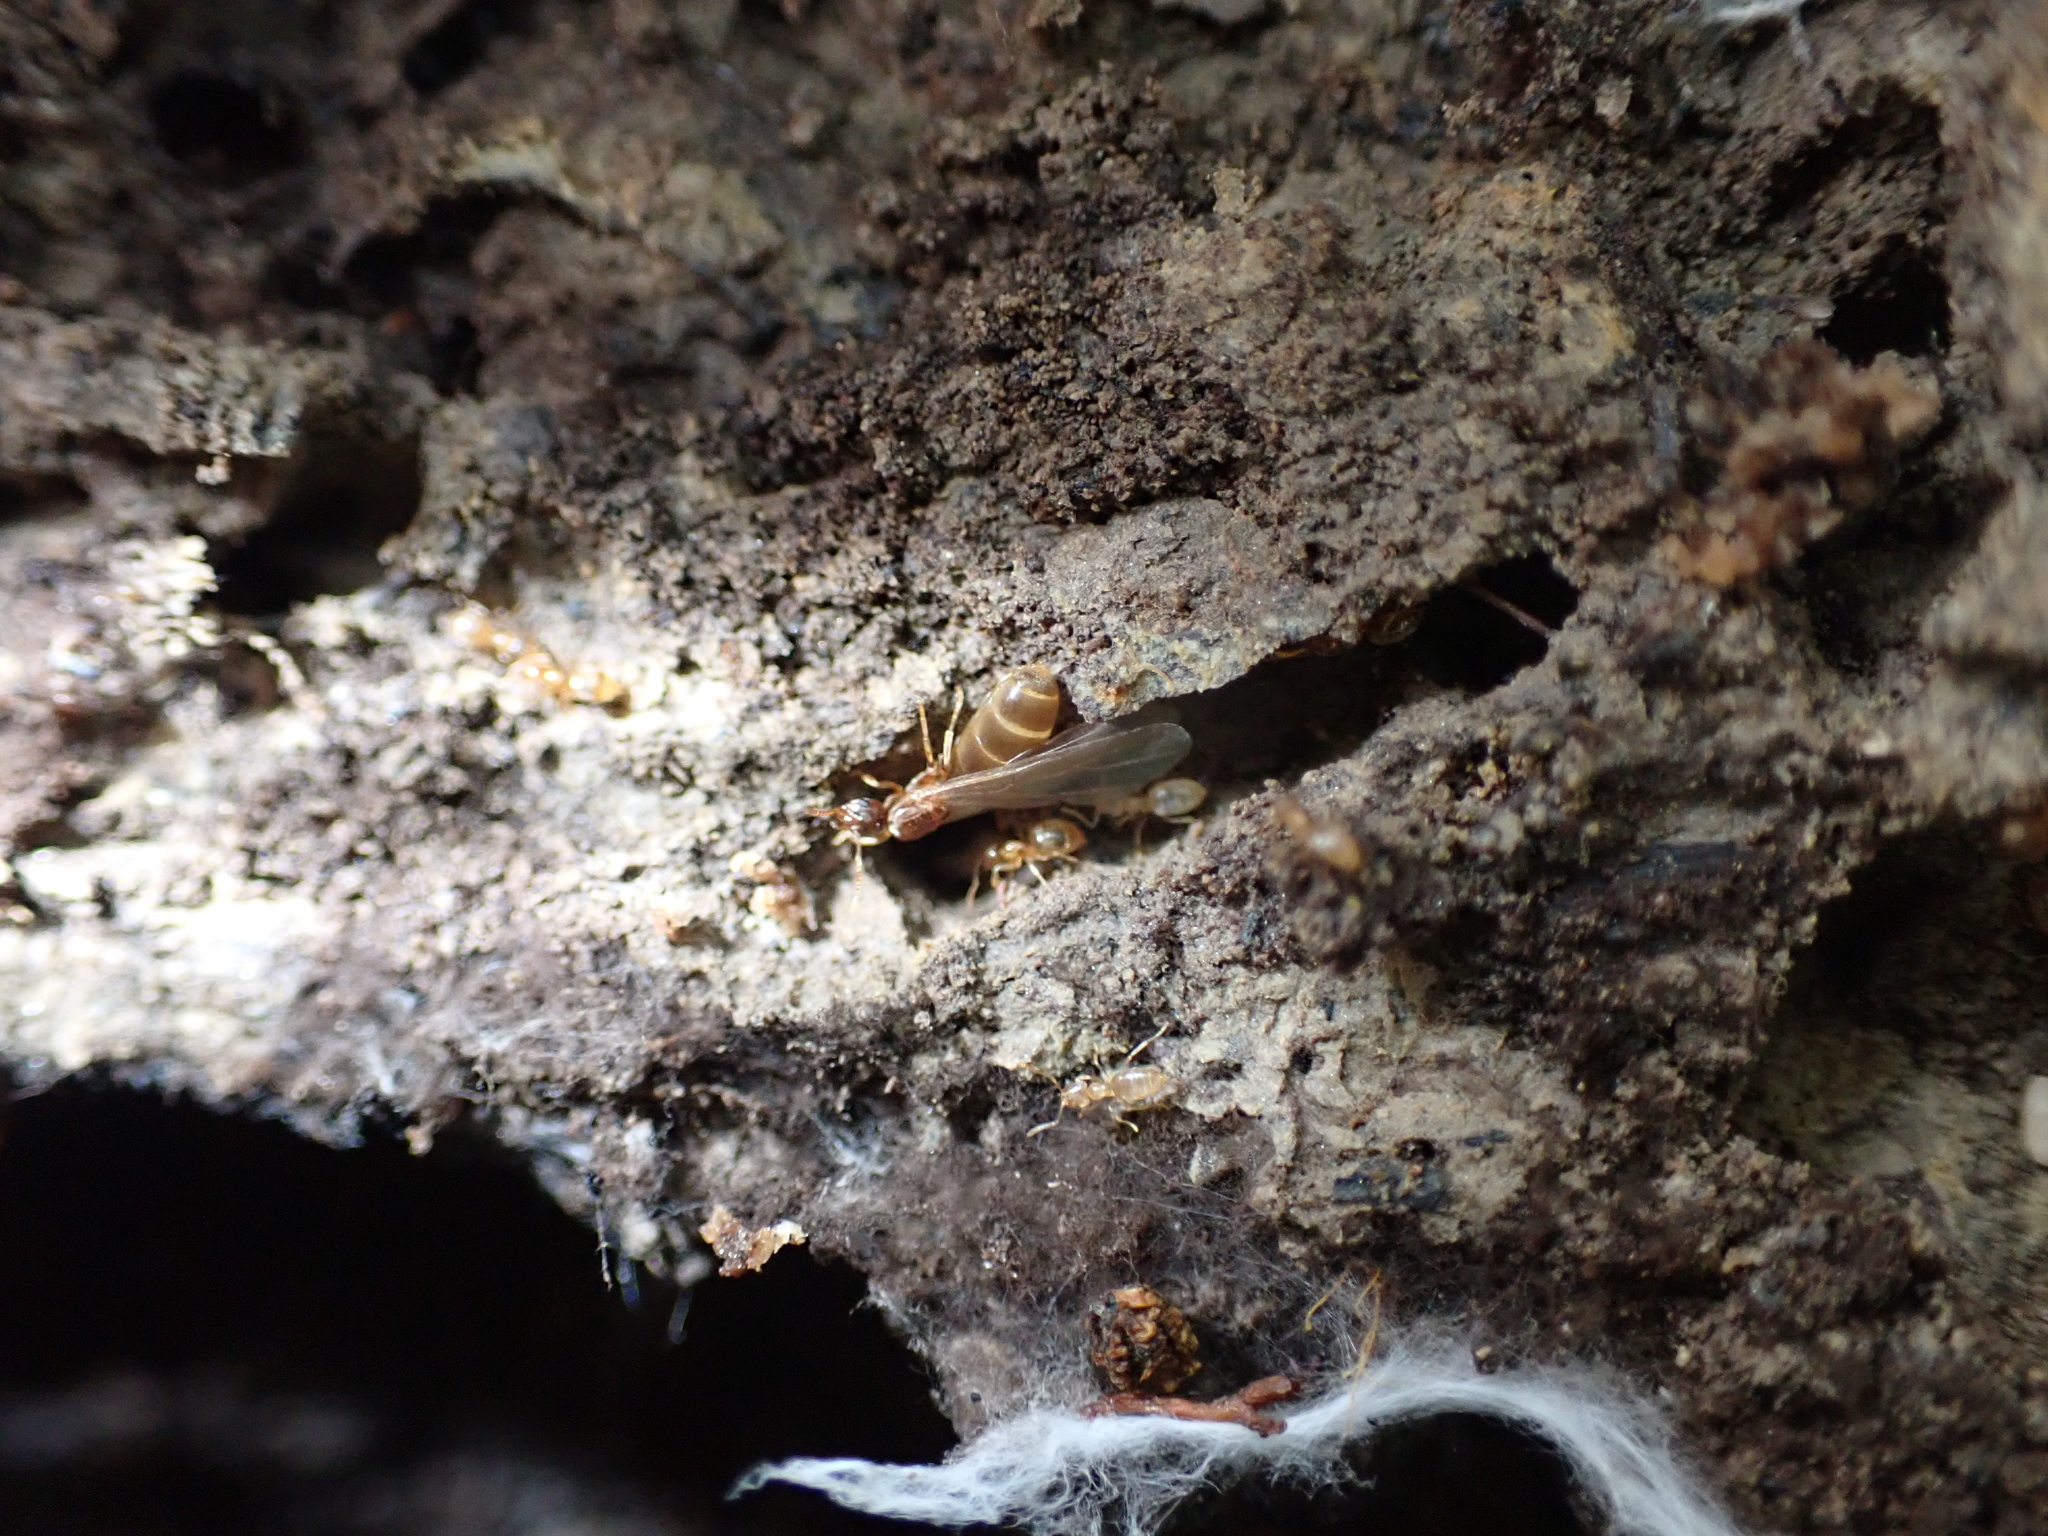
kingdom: Animalia
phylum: Arthropoda
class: Insecta
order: Hymenoptera
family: Formicidae
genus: Brachymyrmex
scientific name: Brachymyrmex depilis
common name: Hairless rover ant
